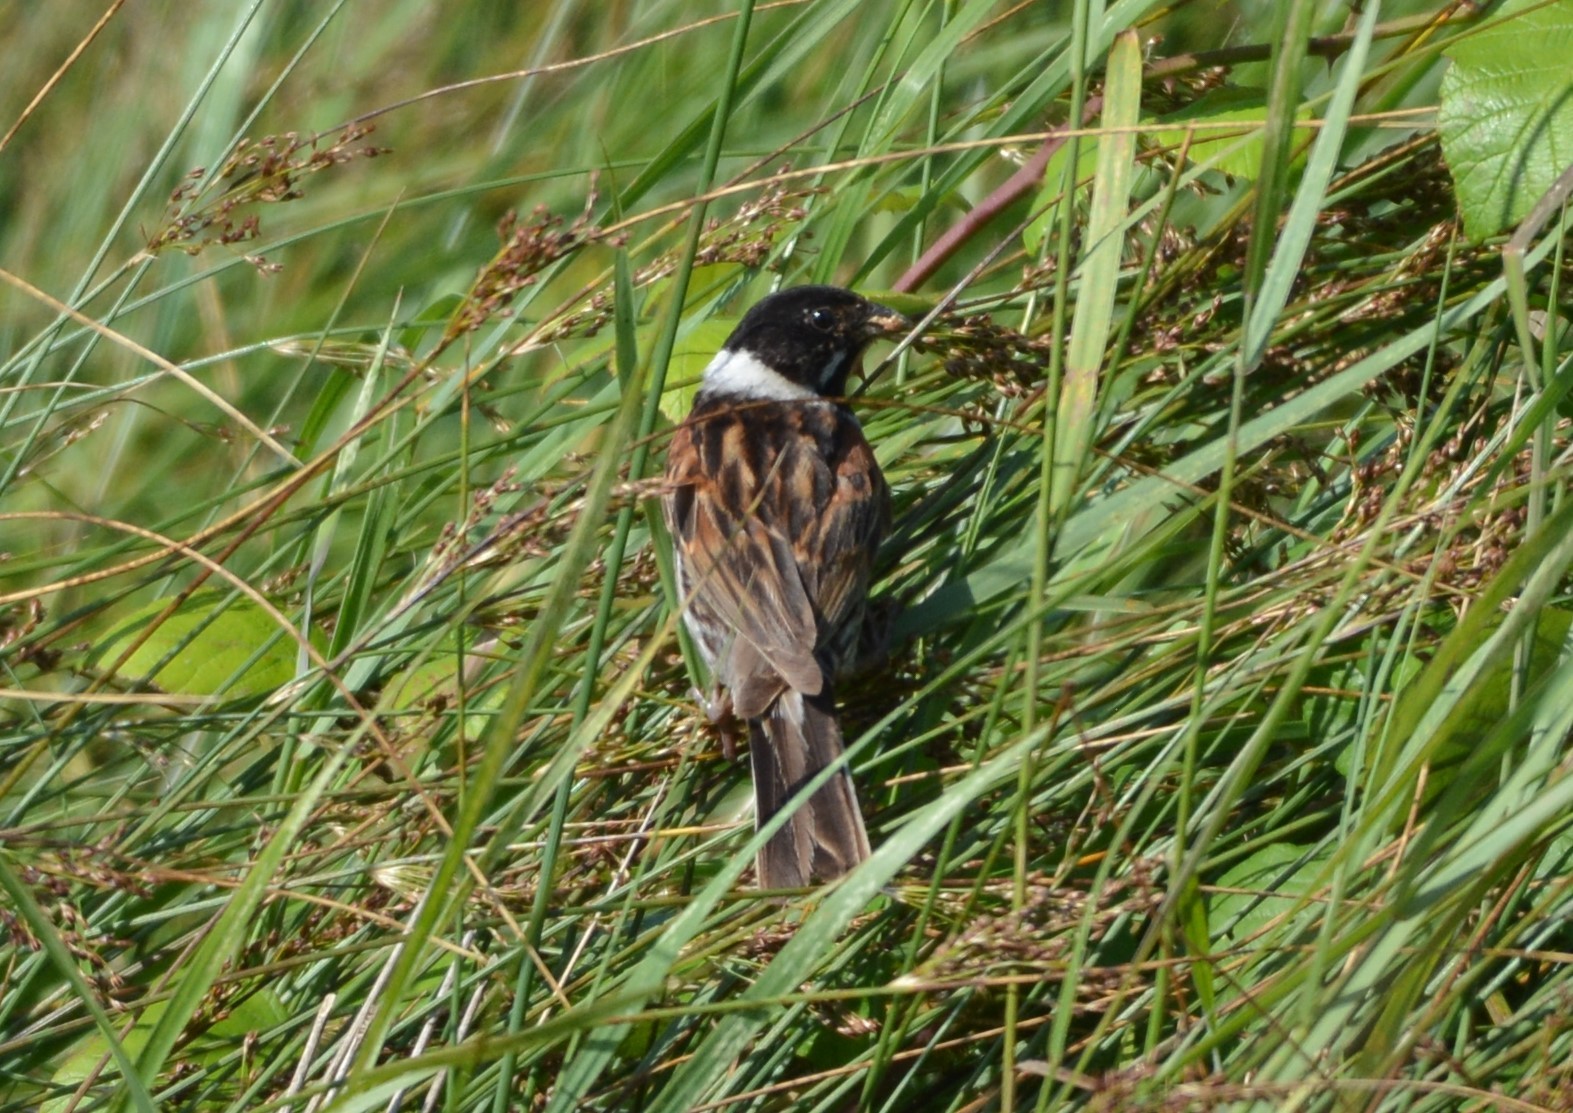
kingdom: Animalia
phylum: Chordata
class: Aves
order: Passeriformes
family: Emberizidae
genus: Emberiza
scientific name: Emberiza schoeniclus
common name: Reed bunting
